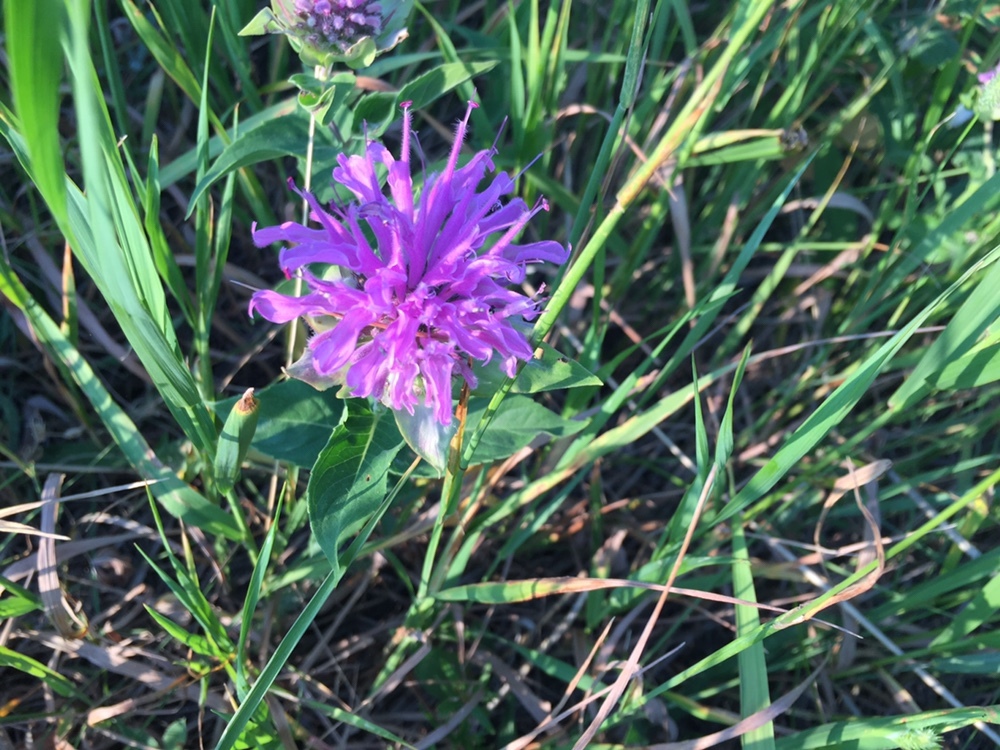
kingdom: Plantae
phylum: Tracheophyta
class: Magnoliopsida
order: Lamiales
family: Lamiaceae
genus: Monarda
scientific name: Monarda fistulosa
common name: Purple beebalm
